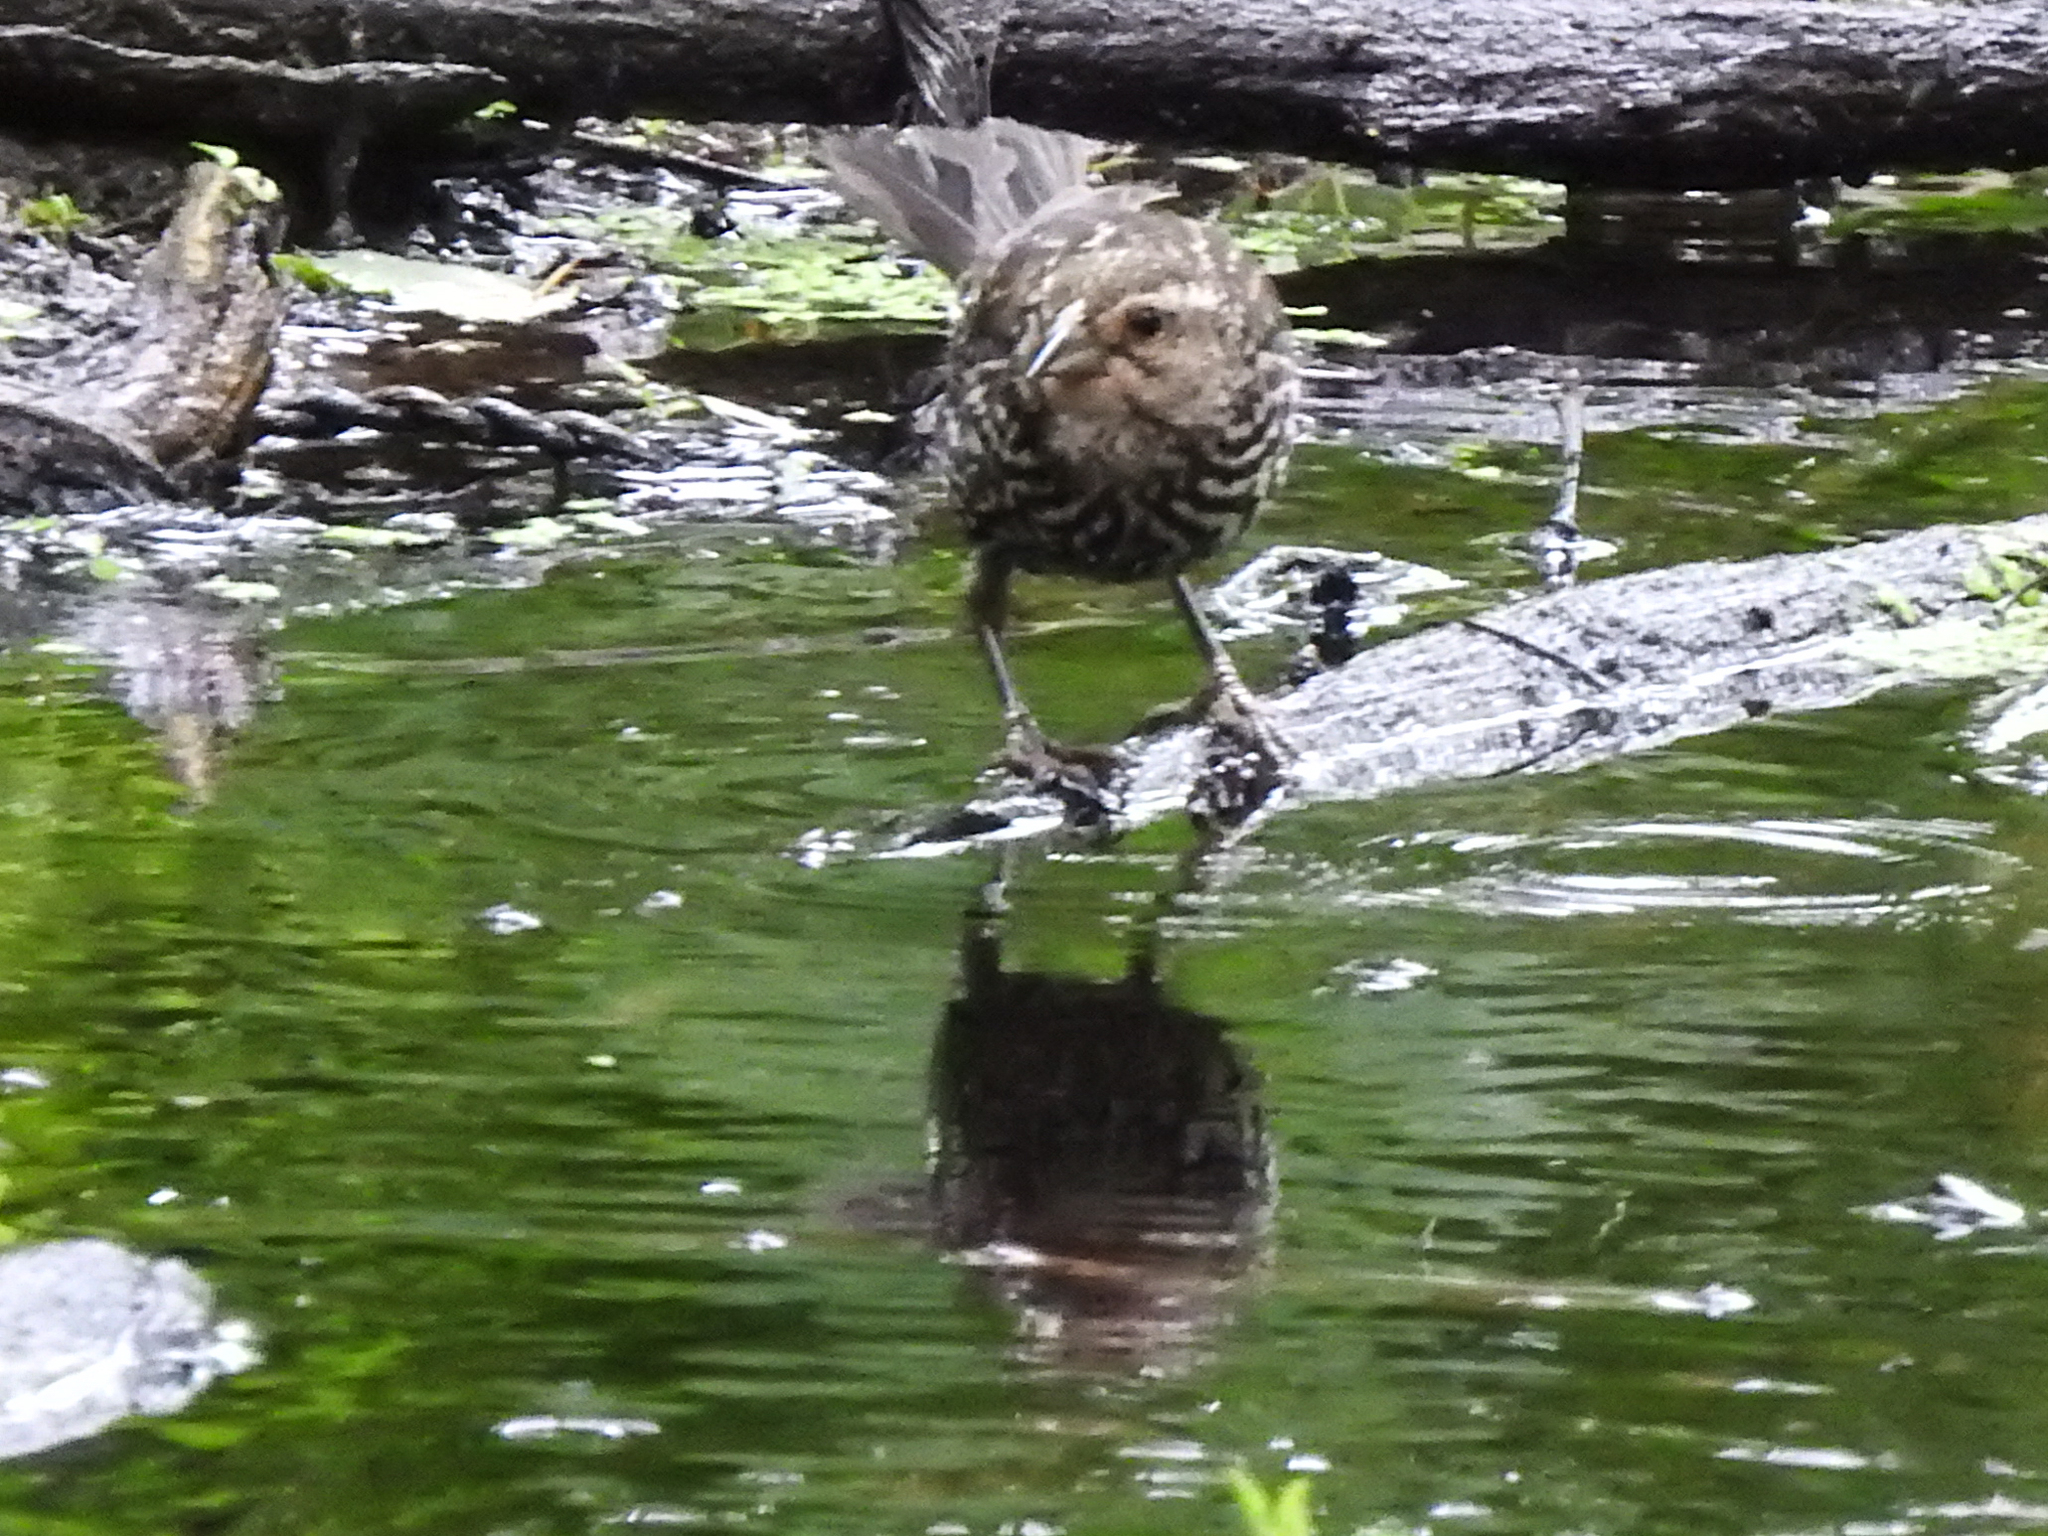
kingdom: Animalia
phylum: Chordata
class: Aves
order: Passeriformes
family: Icteridae
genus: Agelaius
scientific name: Agelaius phoeniceus
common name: Red-winged blackbird
